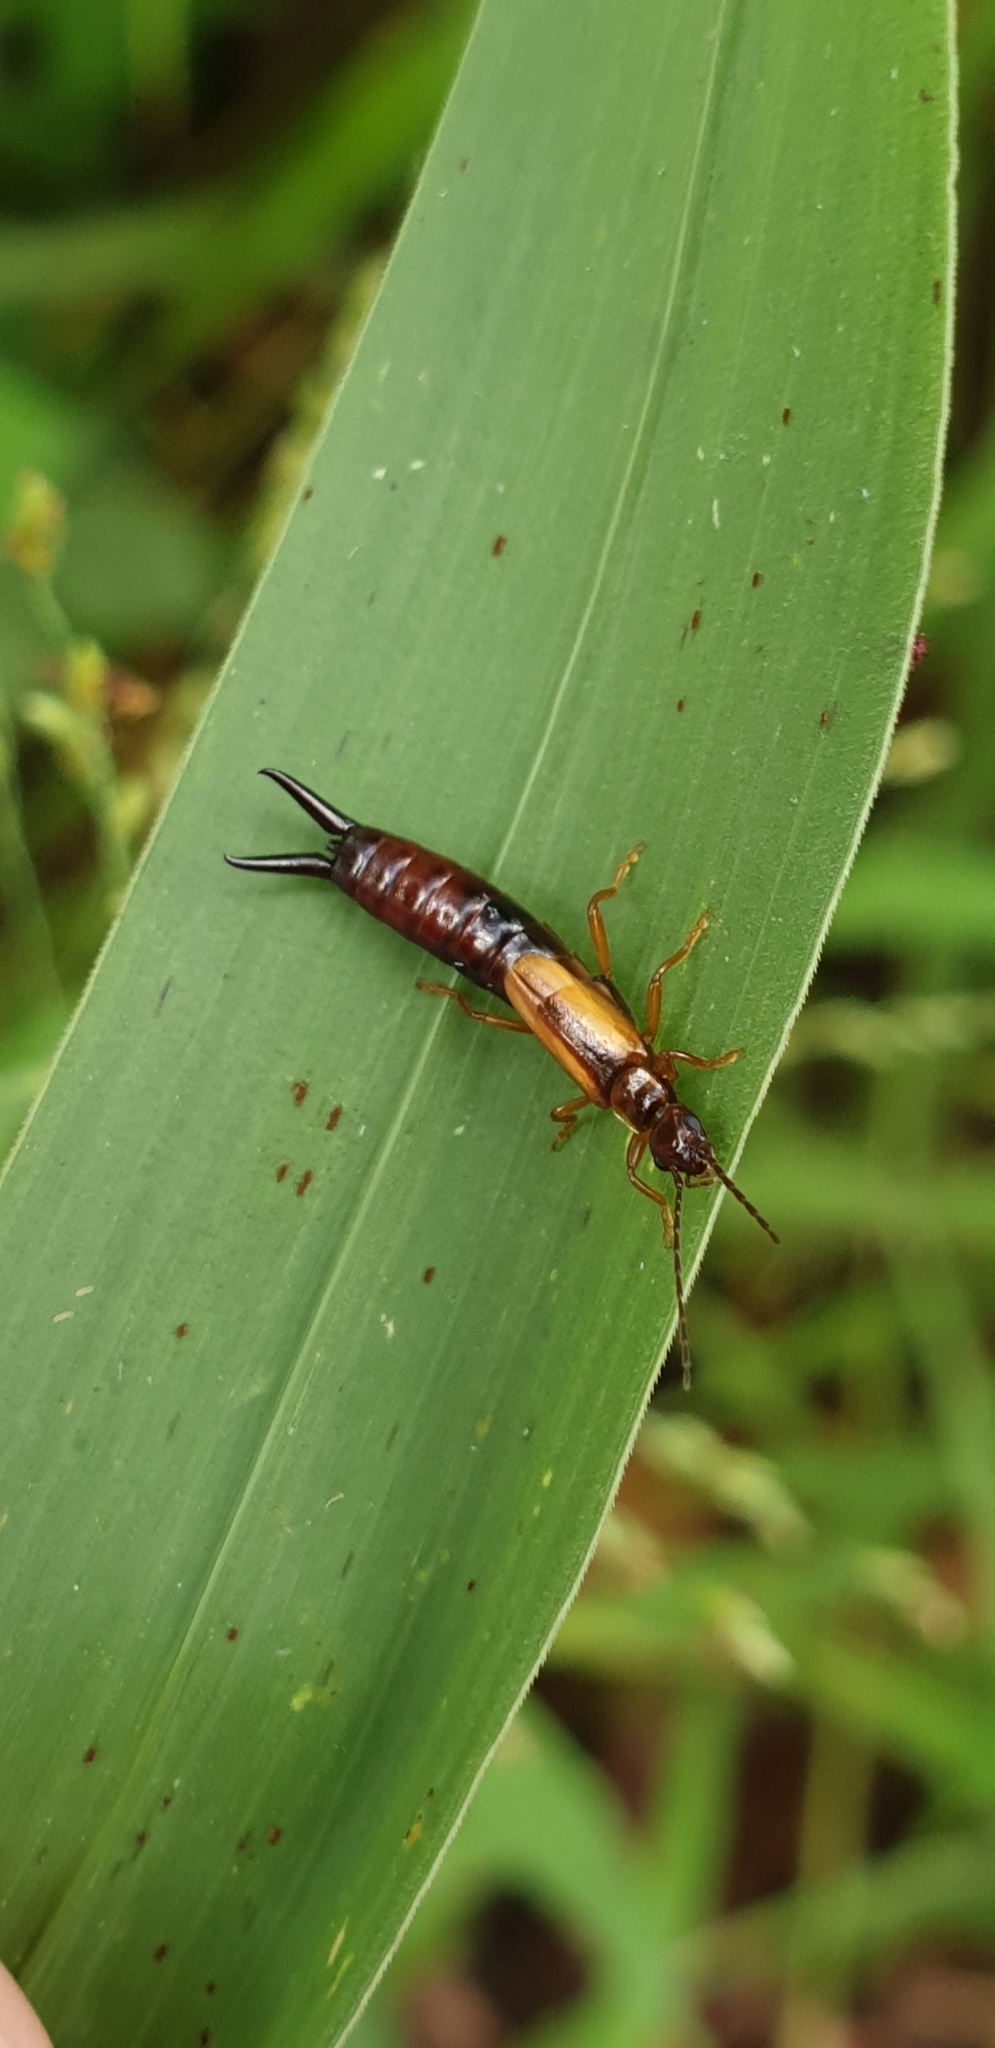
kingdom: Animalia
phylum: Arthropoda
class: Insecta
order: Dermaptera
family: Forficulidae
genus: Elaunon
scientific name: Elaunon bipartitus
